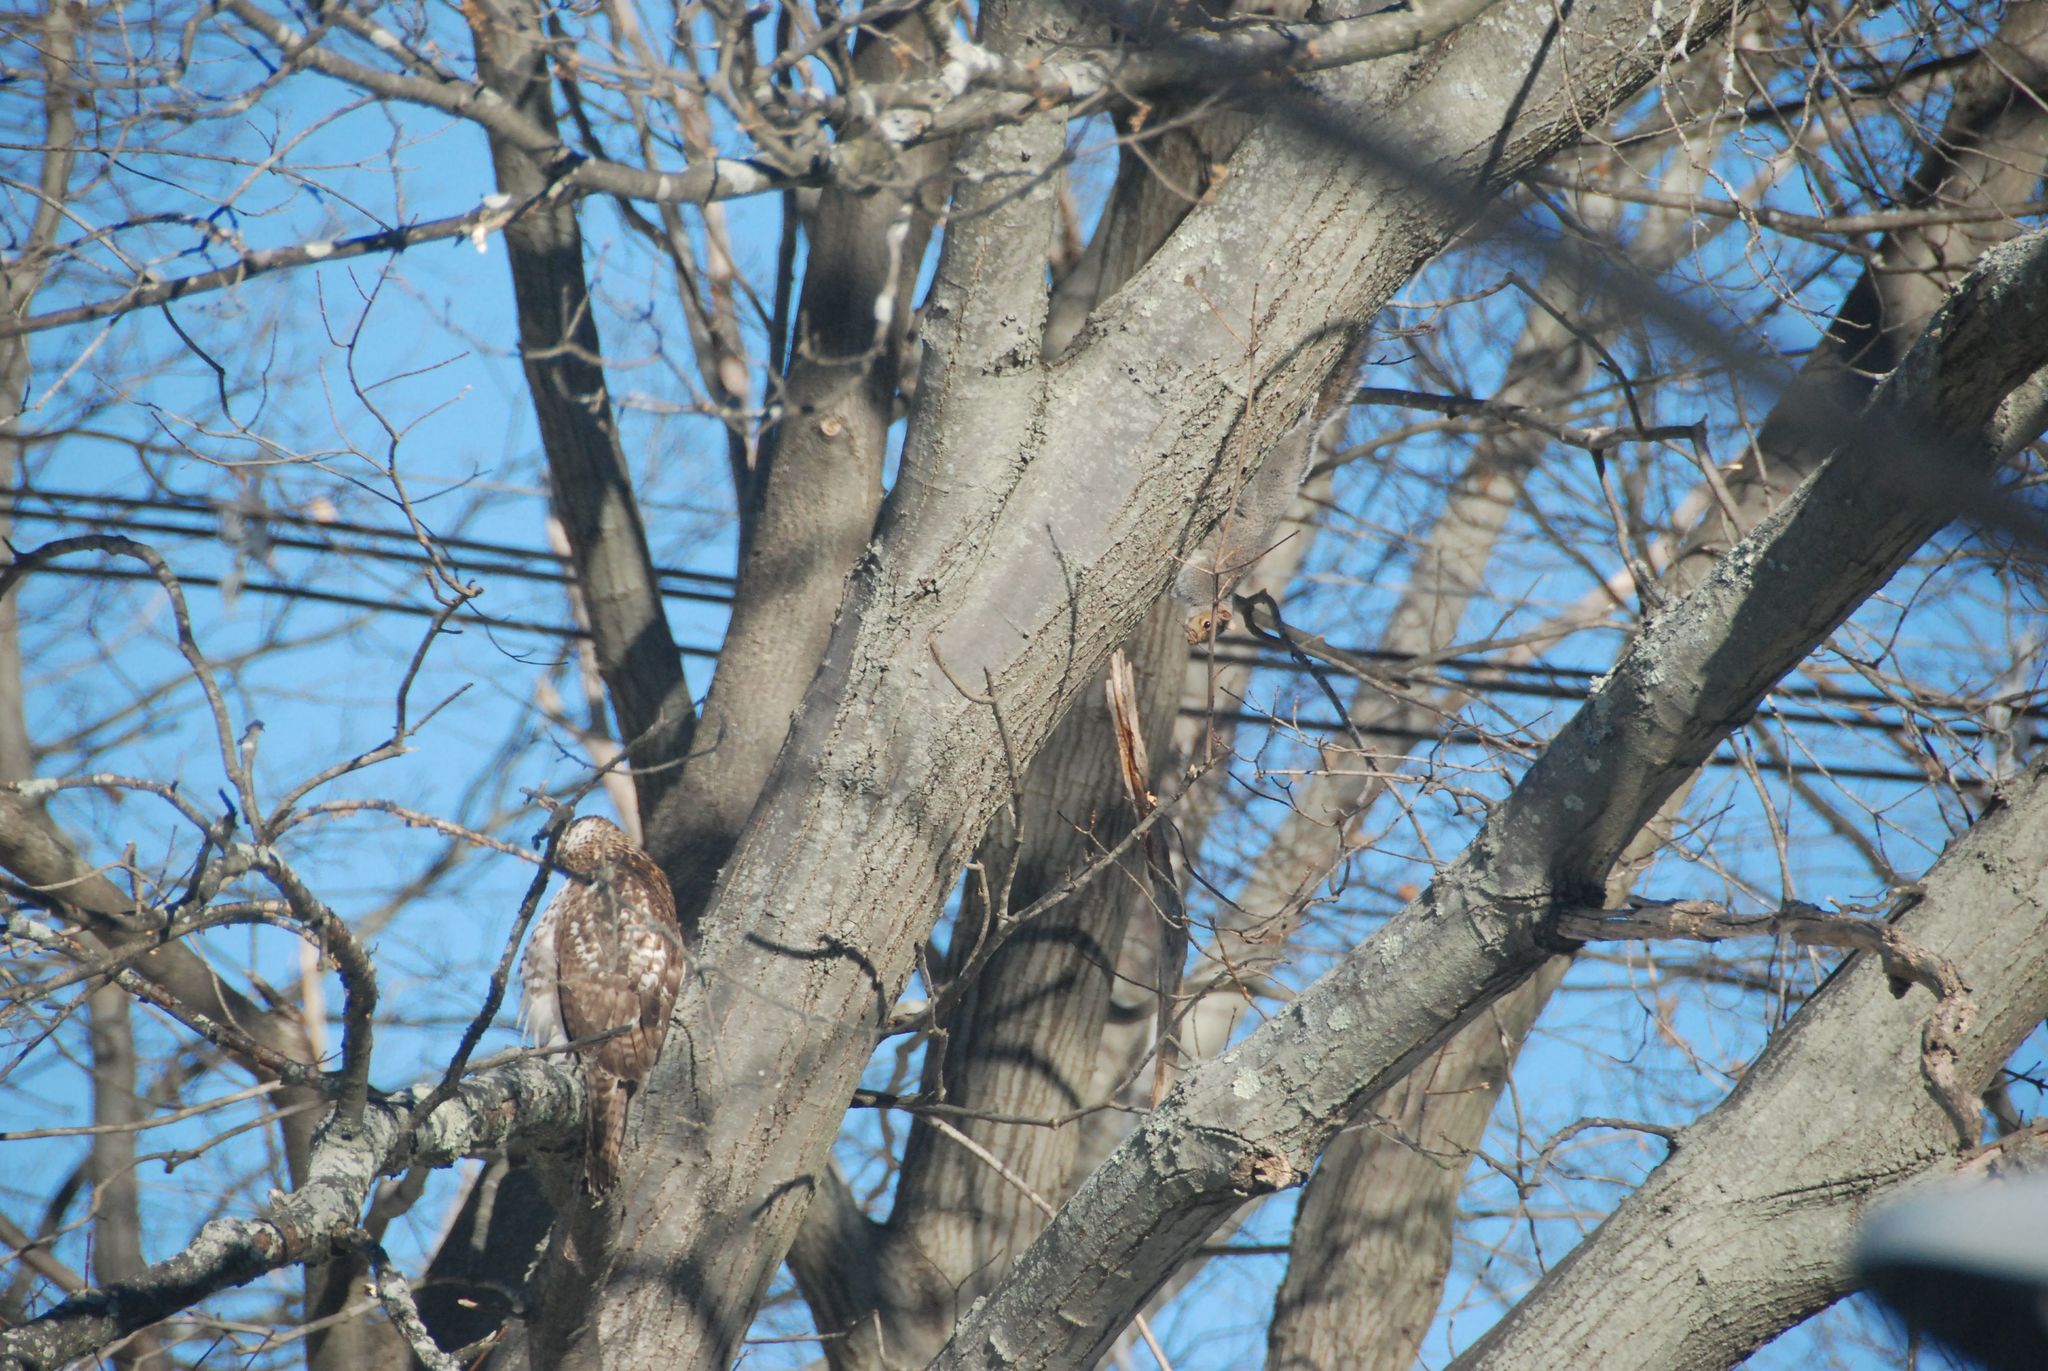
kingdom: Animalia
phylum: Chordata
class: Mammalia
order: Rodentia
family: Sciuridae
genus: Sciurus
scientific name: Sciurus carolinensis
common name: Eastern gray squirrel
